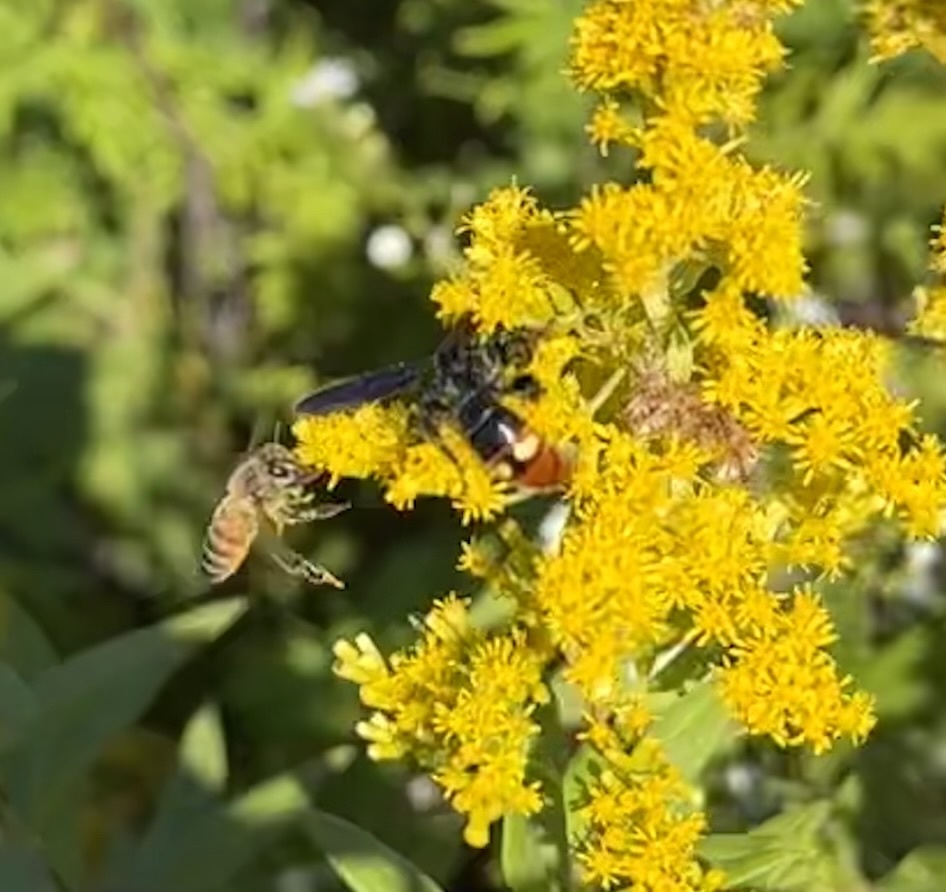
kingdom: Animalia
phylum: Arthropoda
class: Insecta
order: Hymenoptera
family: Scoliidae
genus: Scolia
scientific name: Scolia dubia
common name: Blue-winged scoliid wasp
